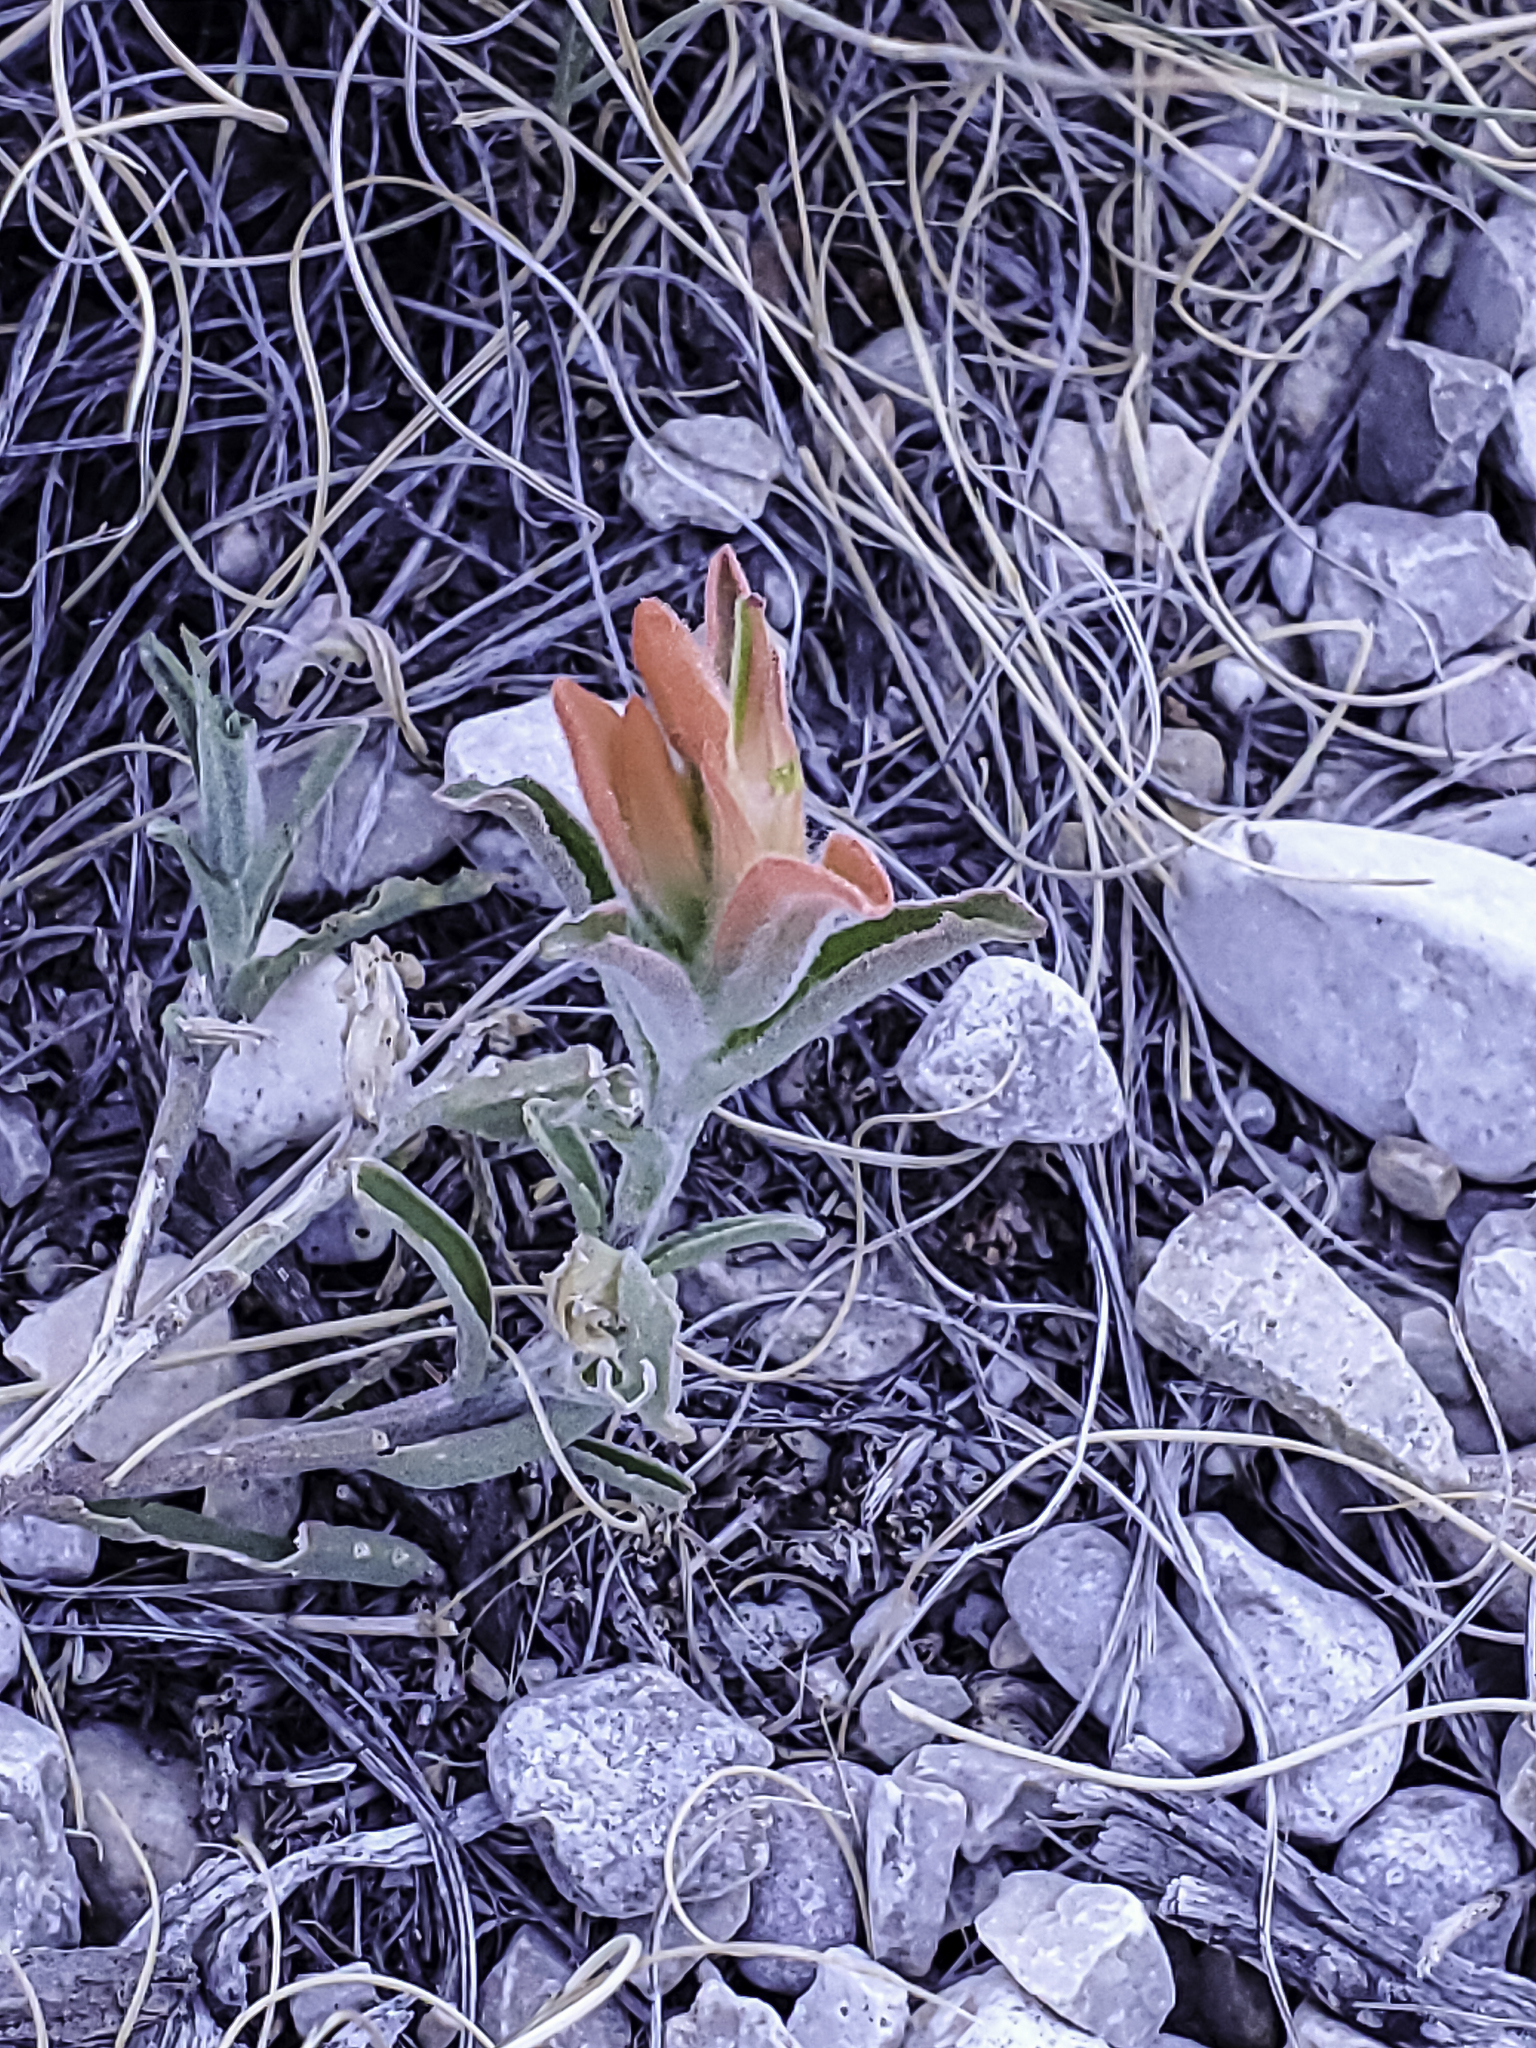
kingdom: Plantae
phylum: Tracheophyta
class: Magnoliopsida
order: Lamiales
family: Orobanchaceae
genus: Castilleja
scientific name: Castilleja integra
